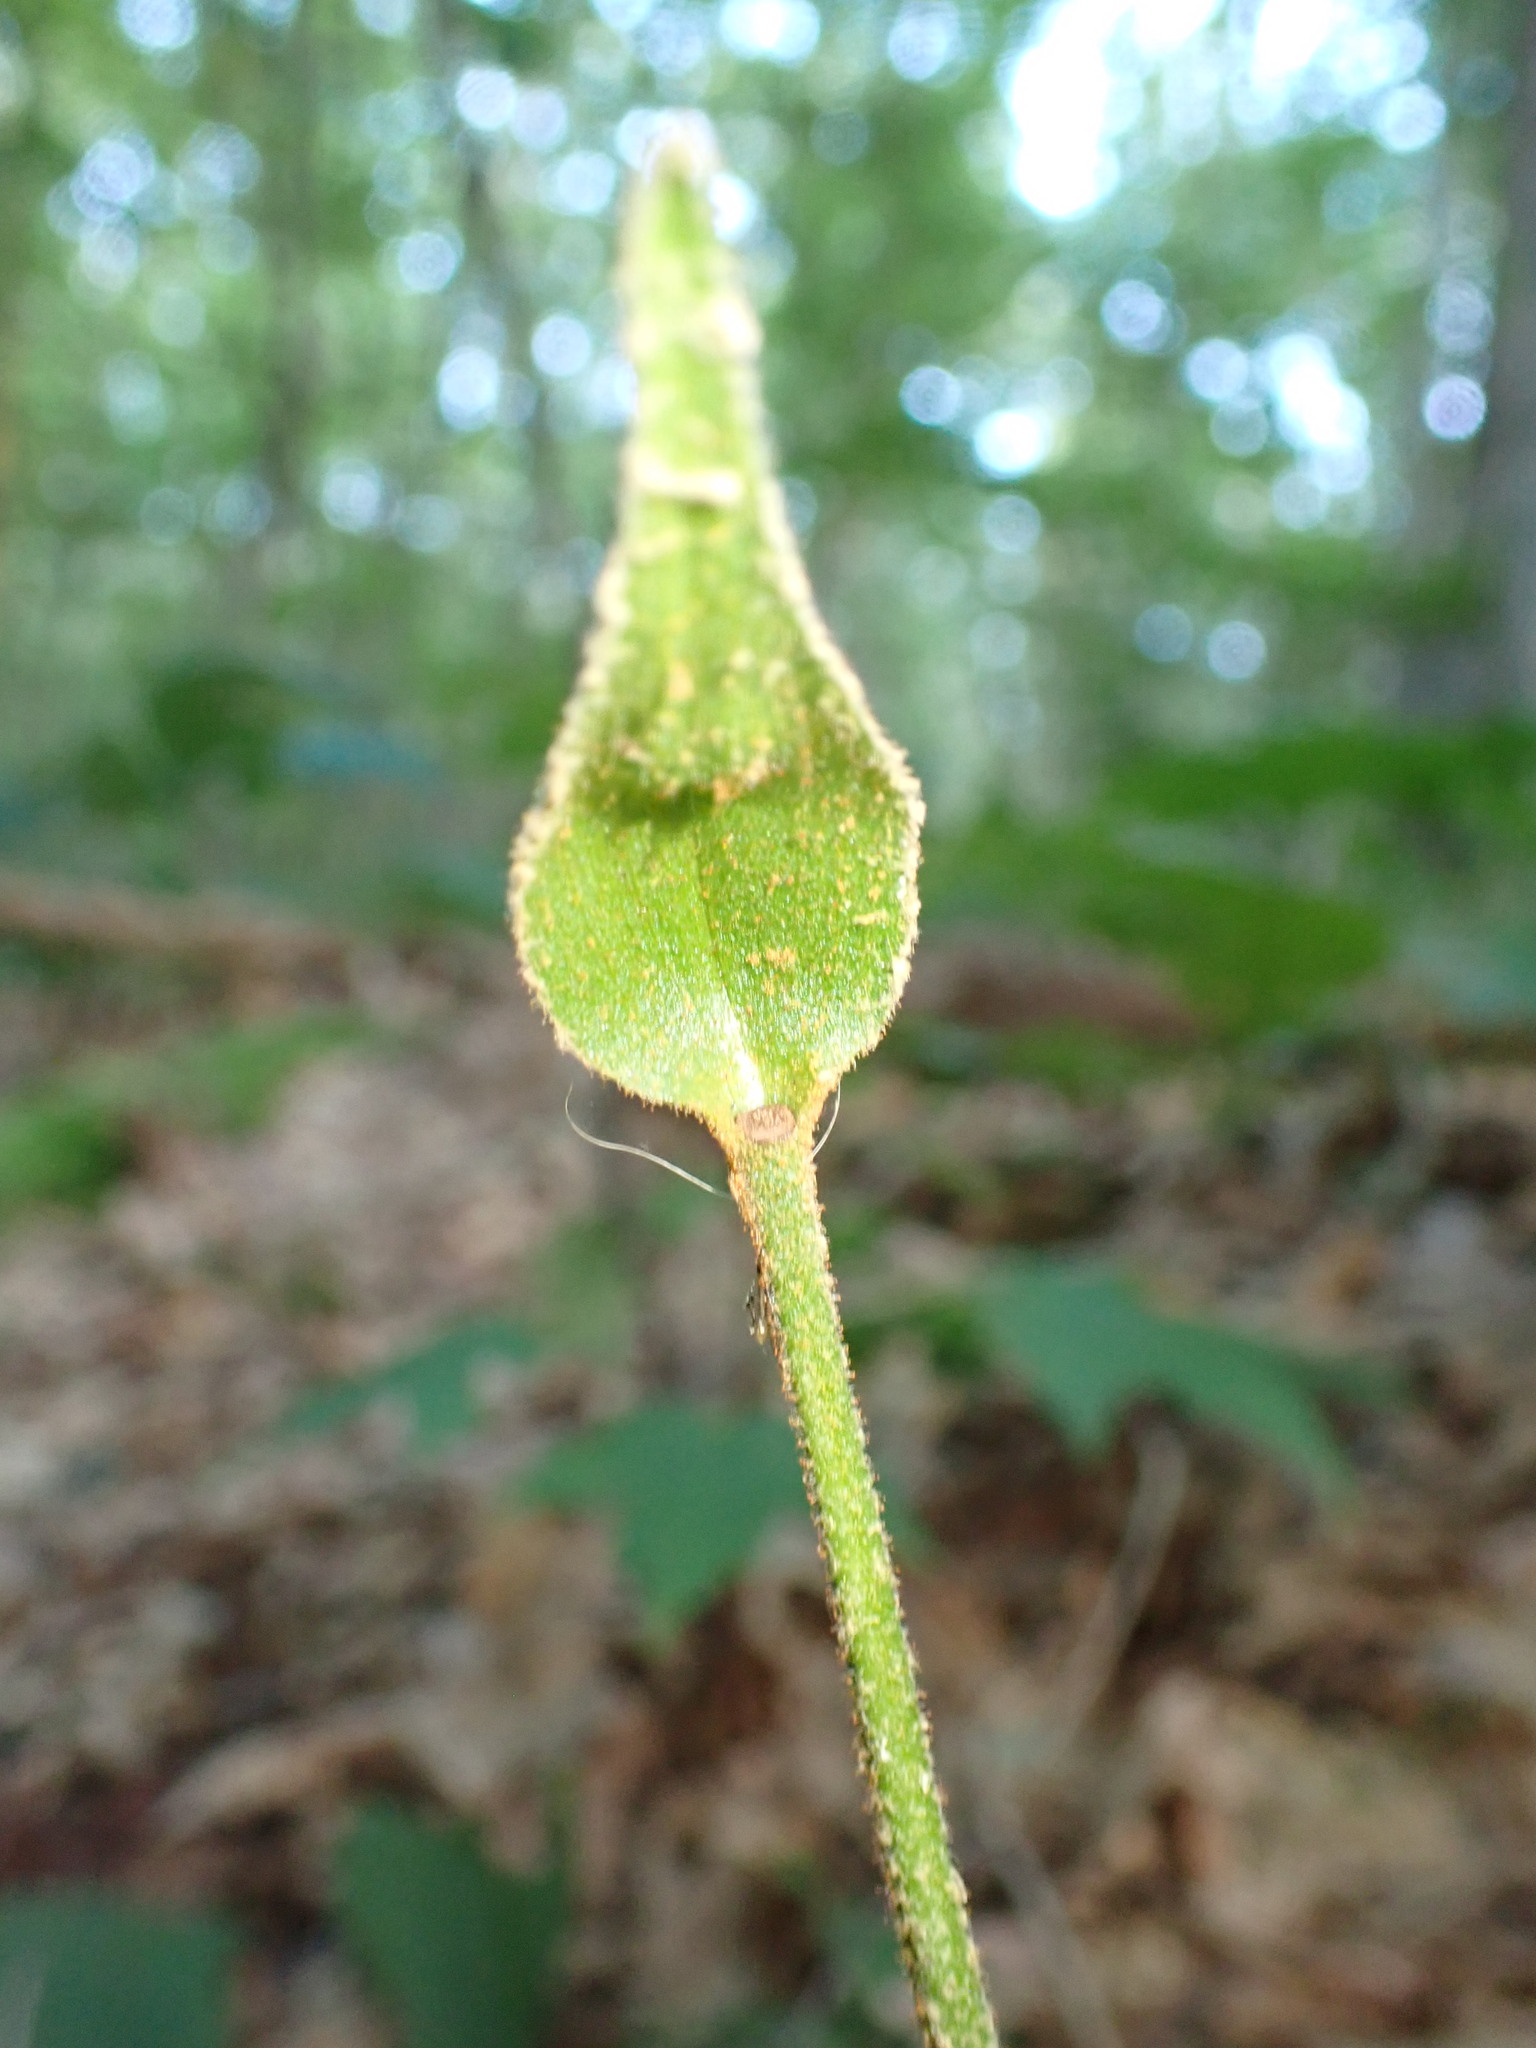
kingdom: Plantae
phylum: Tracheophyta
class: Liliopsida
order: Asparagales
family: Orchidaceae
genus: Cypripedium
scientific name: Cypripedium acaule
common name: Pink lady's-slipper
